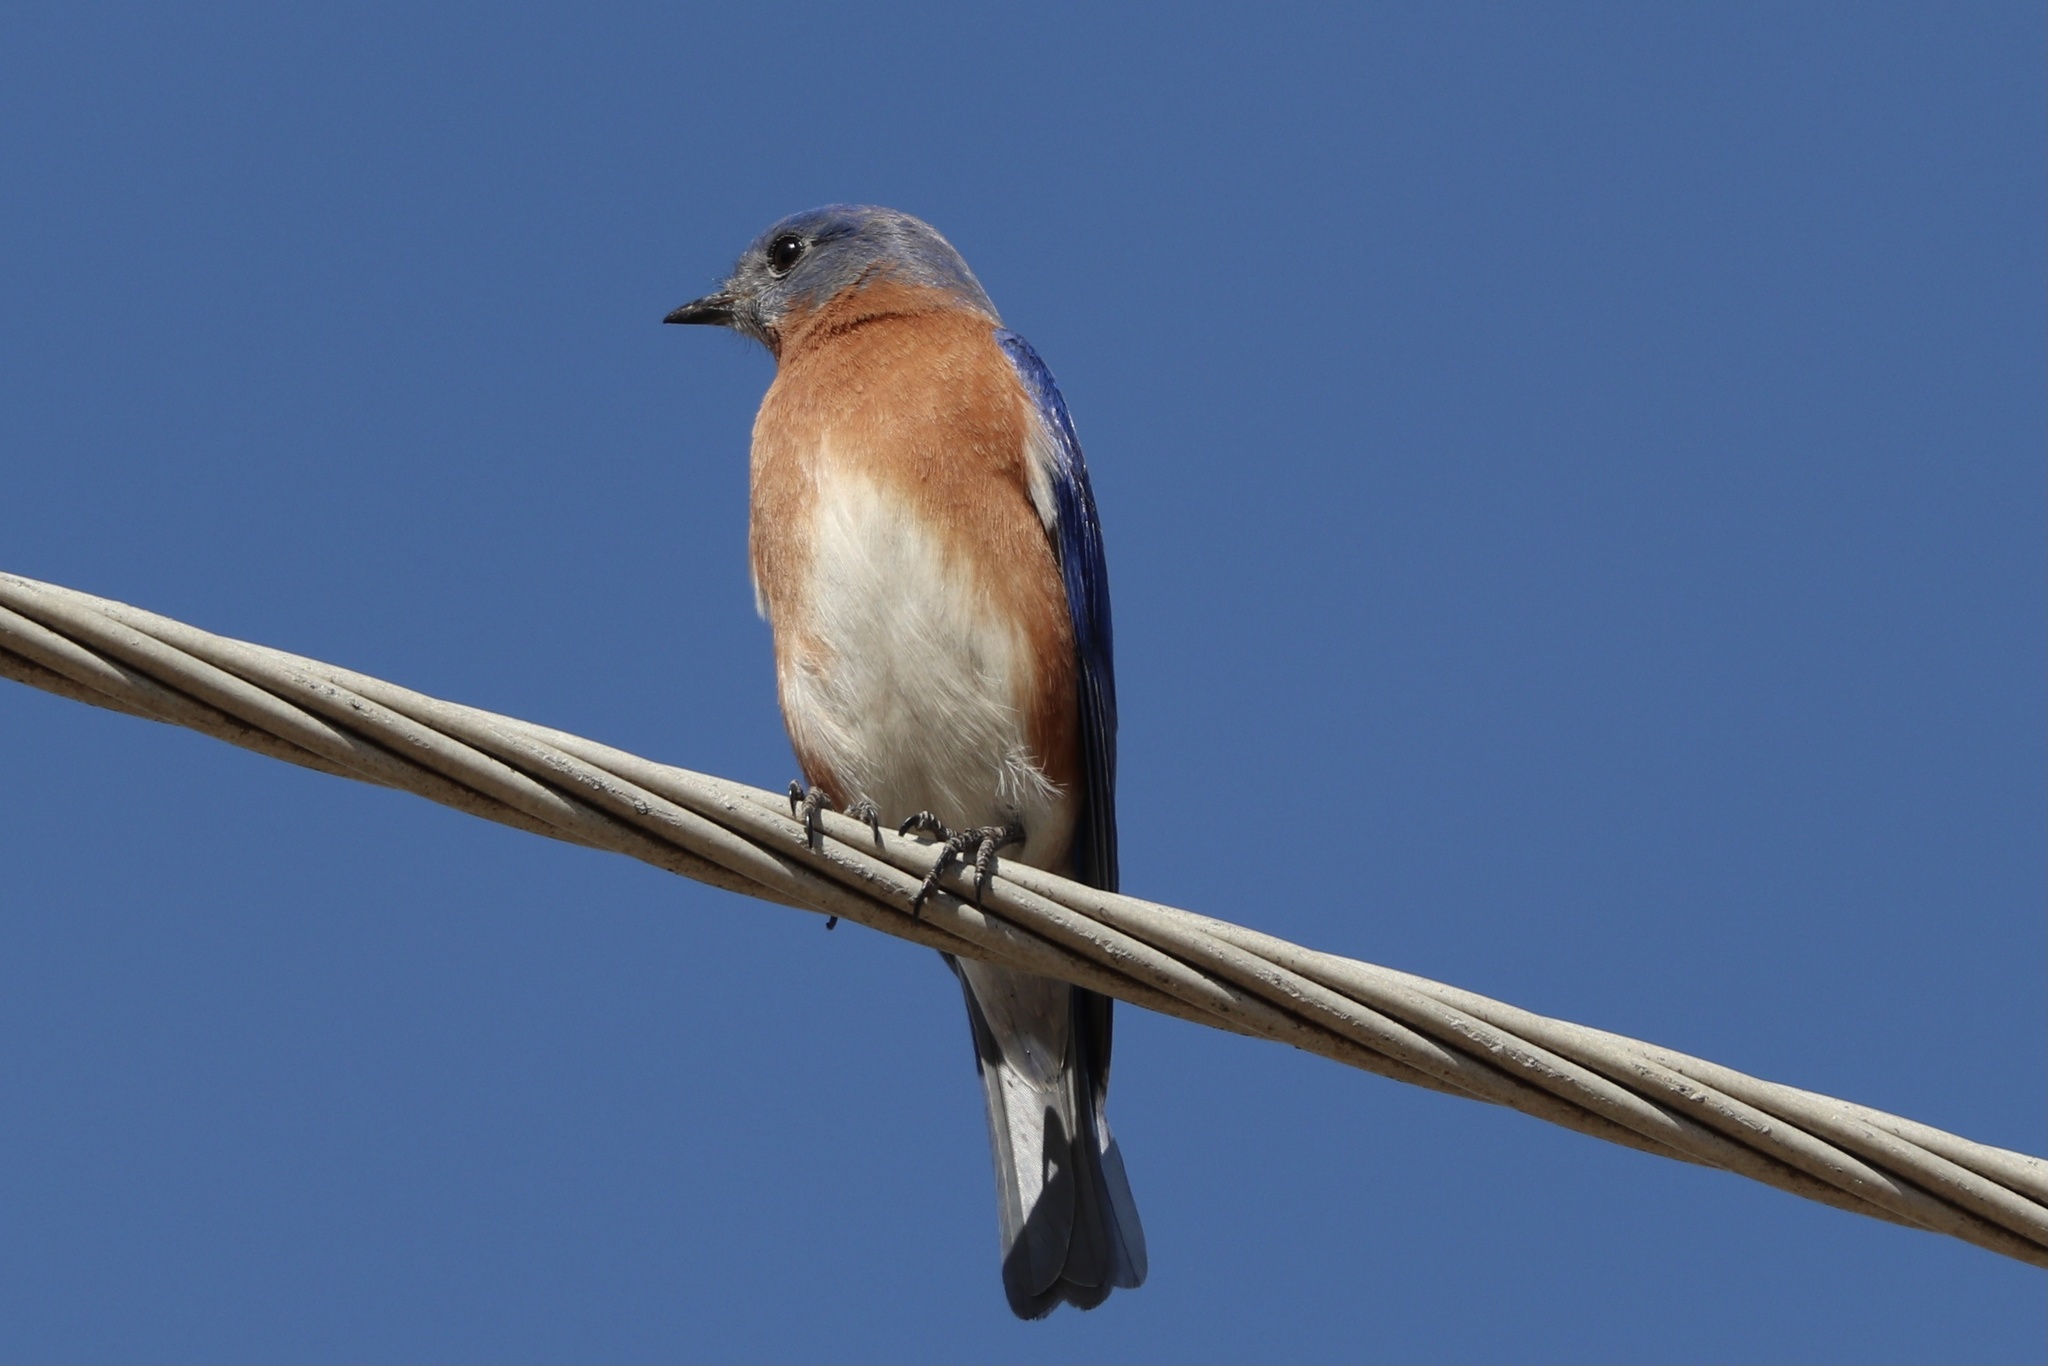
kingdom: Animalia
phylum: Chordata
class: Aves
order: Passeriformes
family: Turdidae
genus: Sialia
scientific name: Sialia sialis
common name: Eastern bluebird
